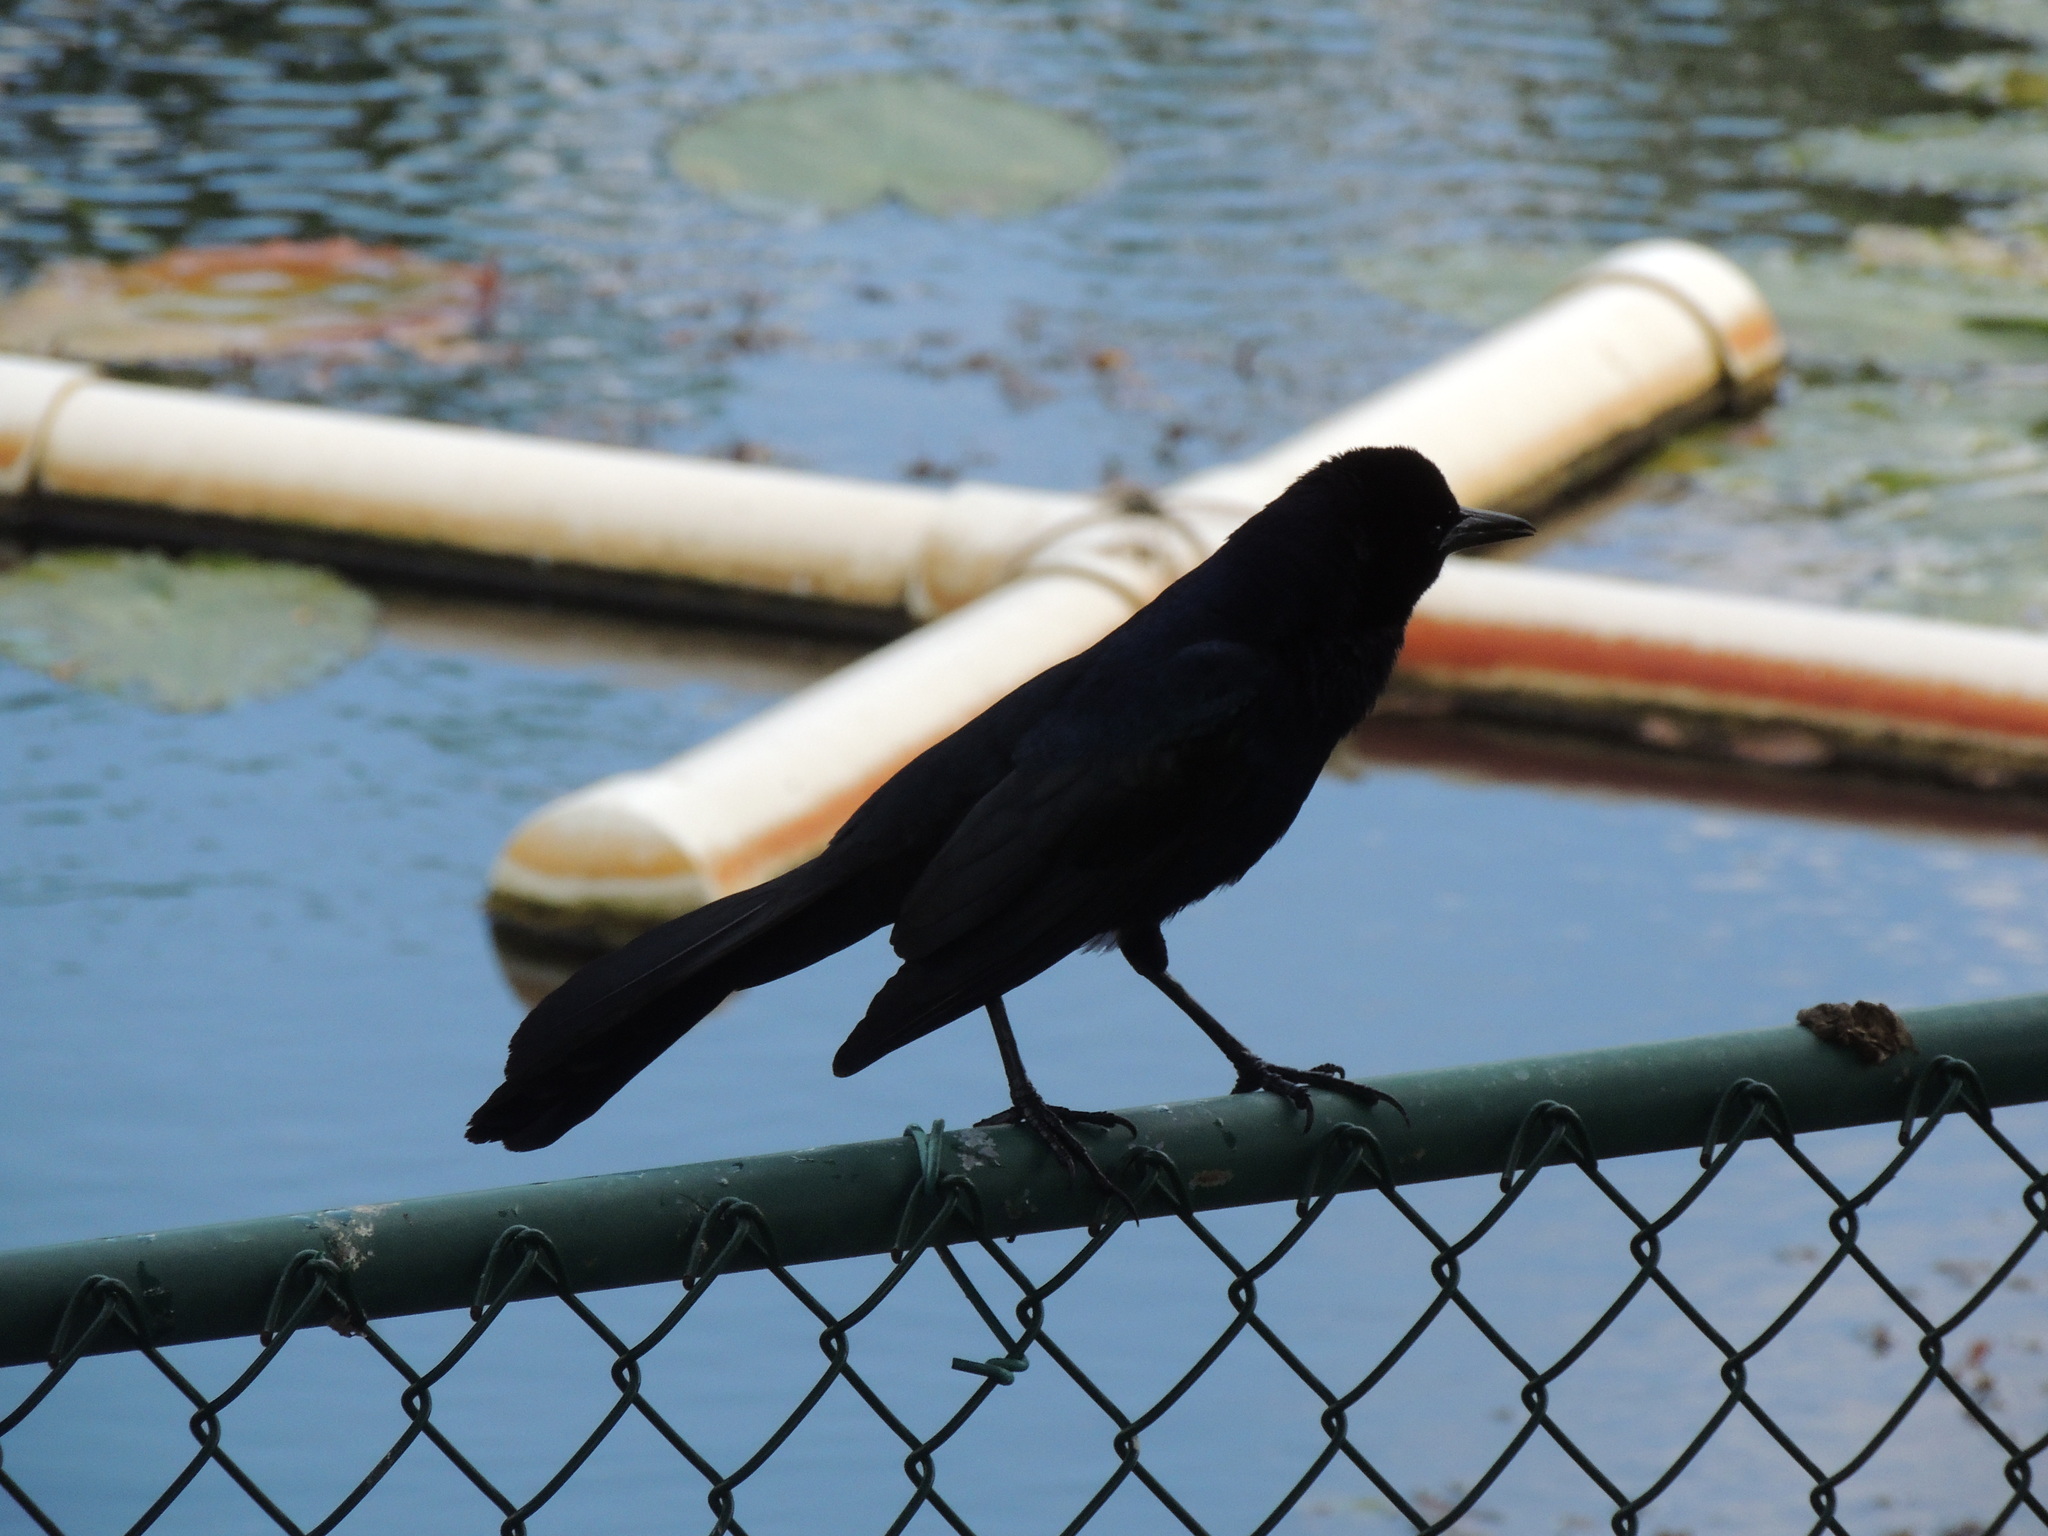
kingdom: Animalia
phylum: Chordata
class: Aves
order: Passeriformes
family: Icteridae
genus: Quiscalus
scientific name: Quiscalus major
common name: Boat-tailed grackle
